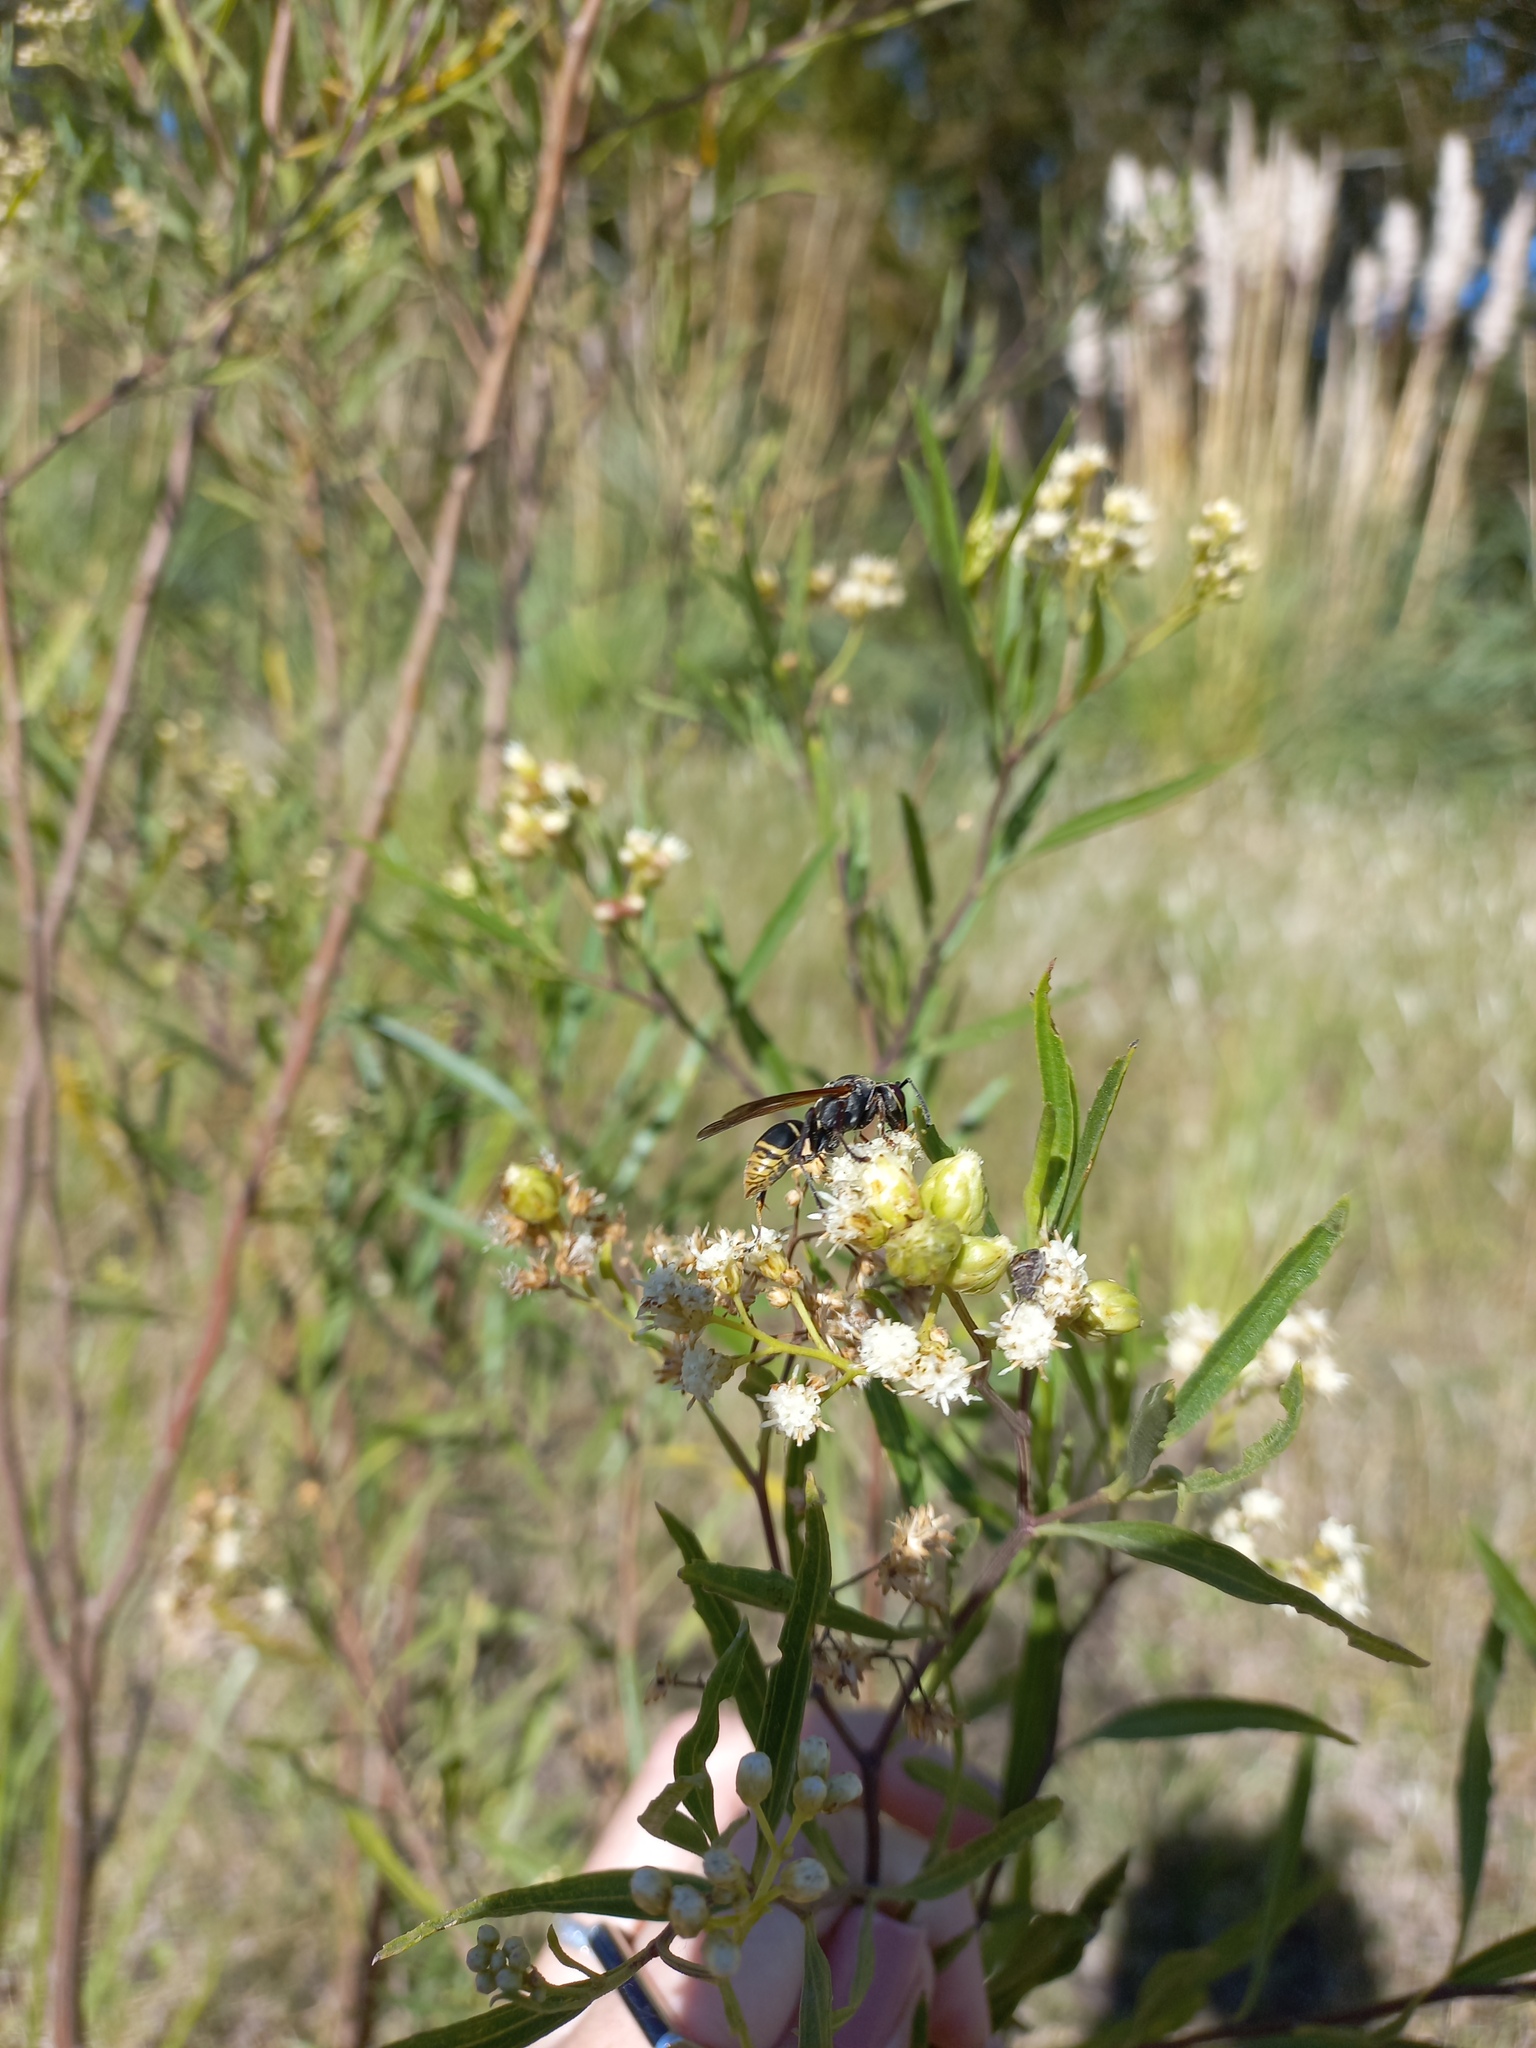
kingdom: Animalia
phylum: Arthropoda
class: Insecta
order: Hymenoptera
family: Eumenidae
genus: Polistes
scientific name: Polistes cinerascens
